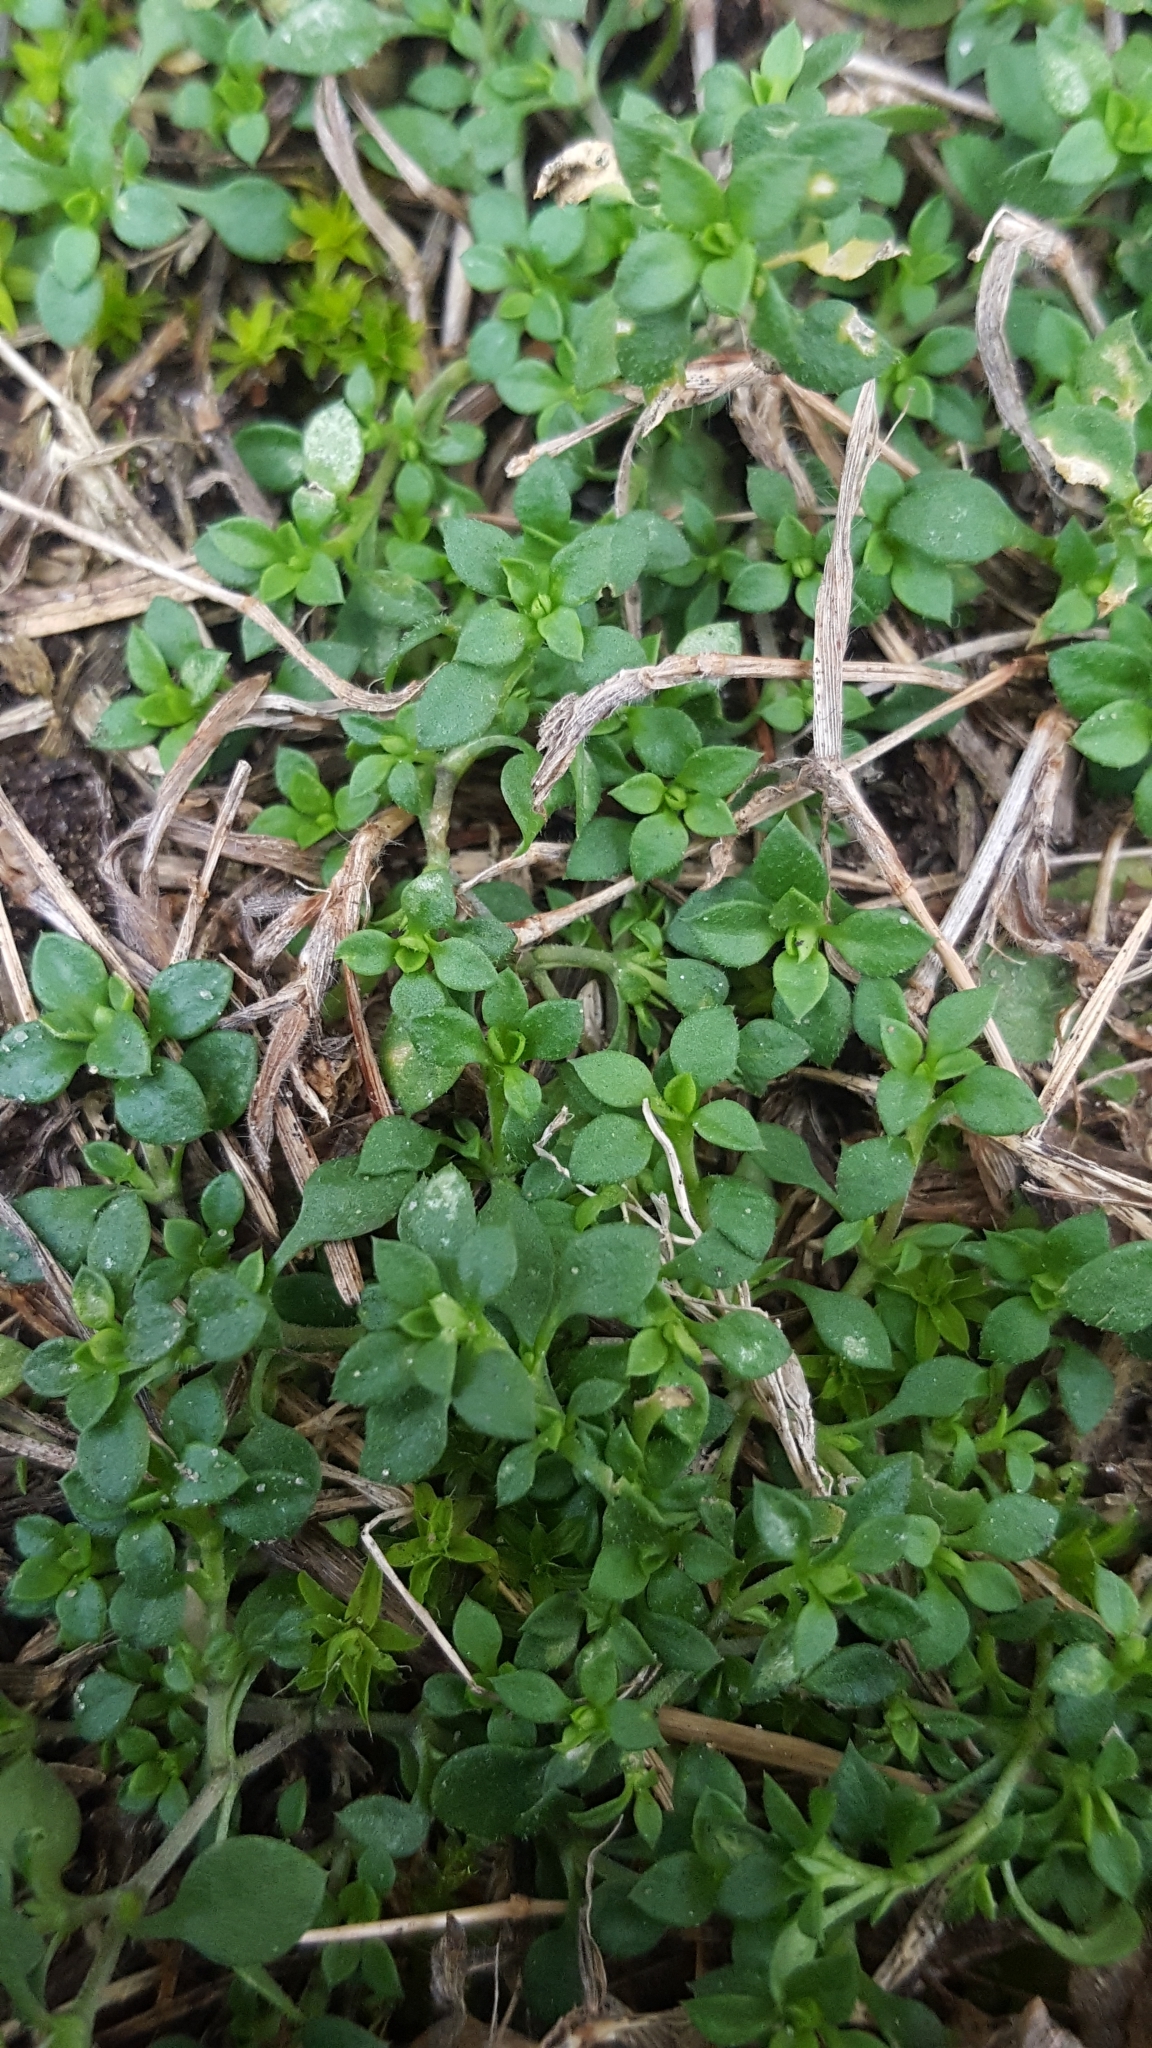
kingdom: Plantae
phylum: Tracheophyta
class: Magnoliopsida
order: Caryophyllales
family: Caryophyllaceae
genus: Stellaria
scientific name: Stellaria media
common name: Common chickweed
